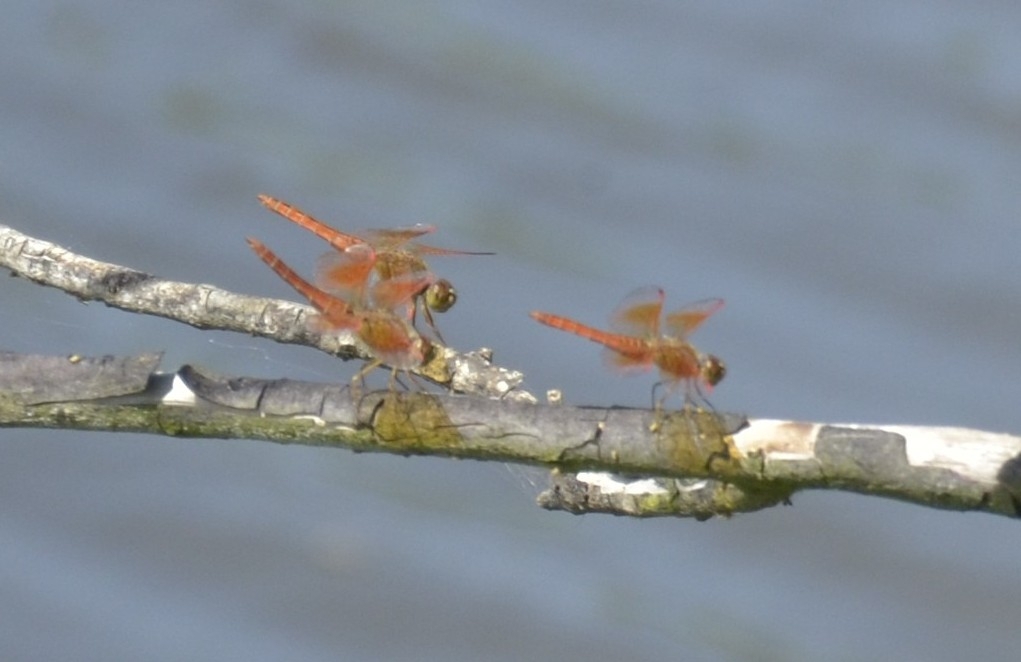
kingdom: Animalia
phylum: Arthropoda
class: Insecta
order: Odonata
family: Libellulidae
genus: Brachythemis
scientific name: Brachythemis contaminata
